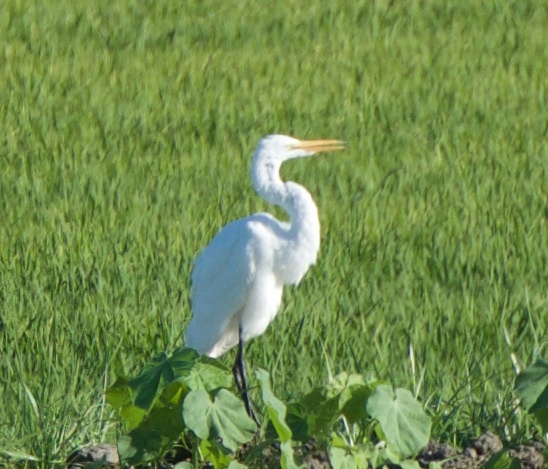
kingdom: Animalia
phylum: Chordata
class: Aves
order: Pelecaniformes
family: Ardeidae
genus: Ardea
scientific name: Ardea alba
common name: Great egret
